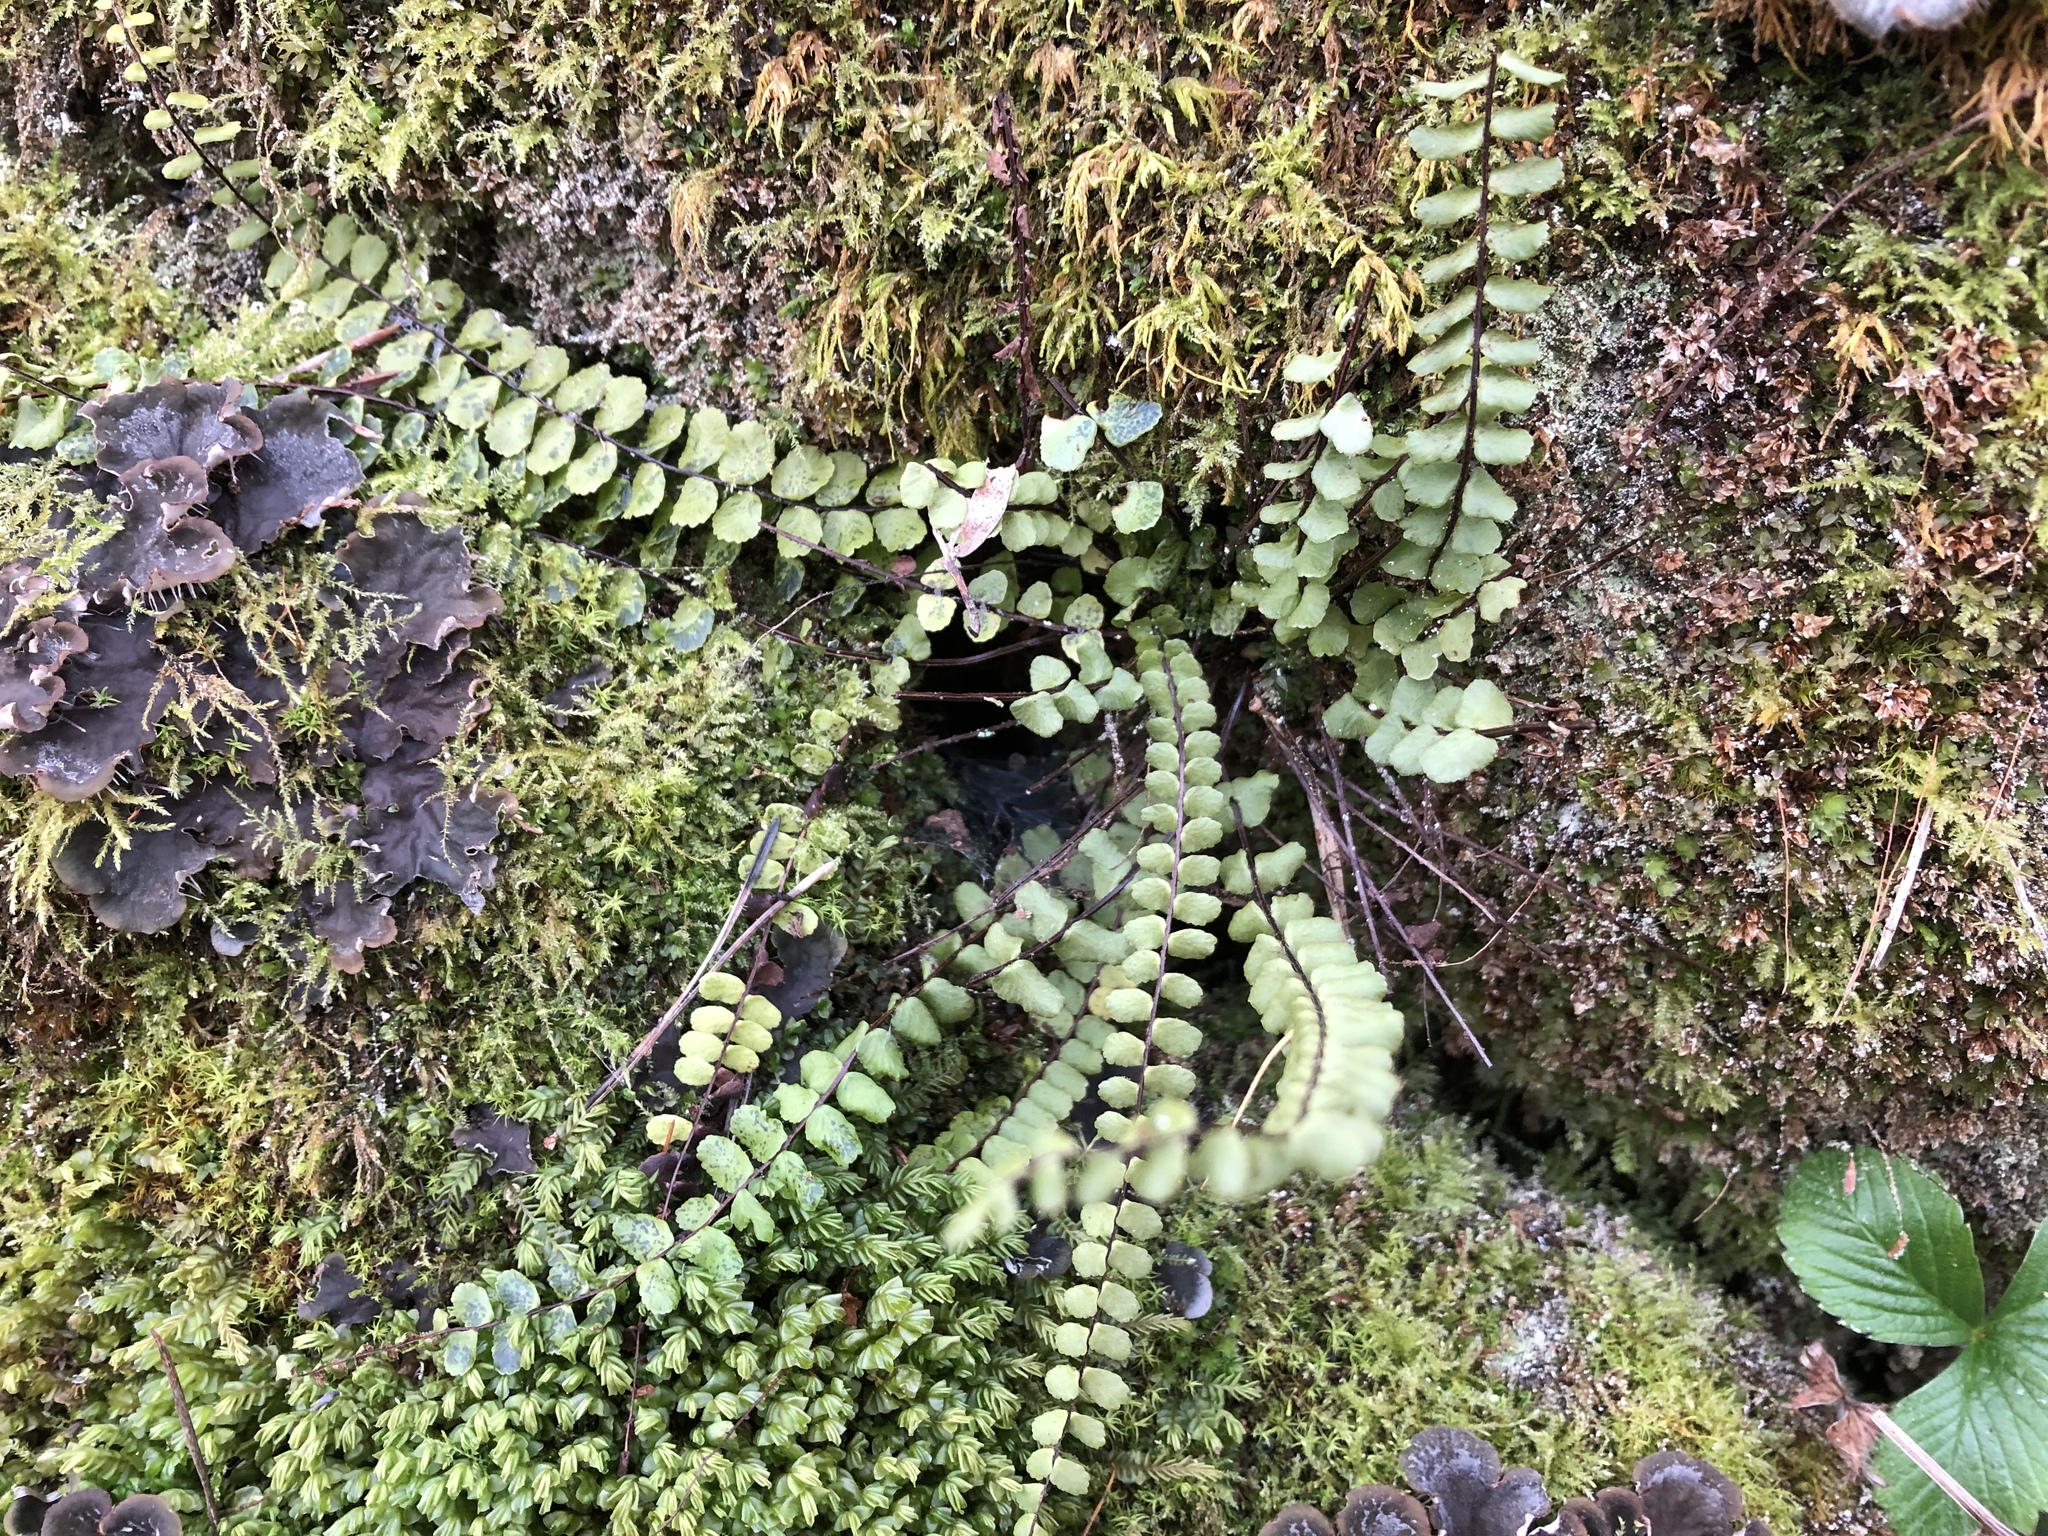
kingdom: Plantae
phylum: Tracheophyta
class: Polypodiopsida
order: Polypodiales
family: Aspleniaceae
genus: Asplenium
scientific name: Asplenium trichomanes
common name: Maidenhair spleenwort
